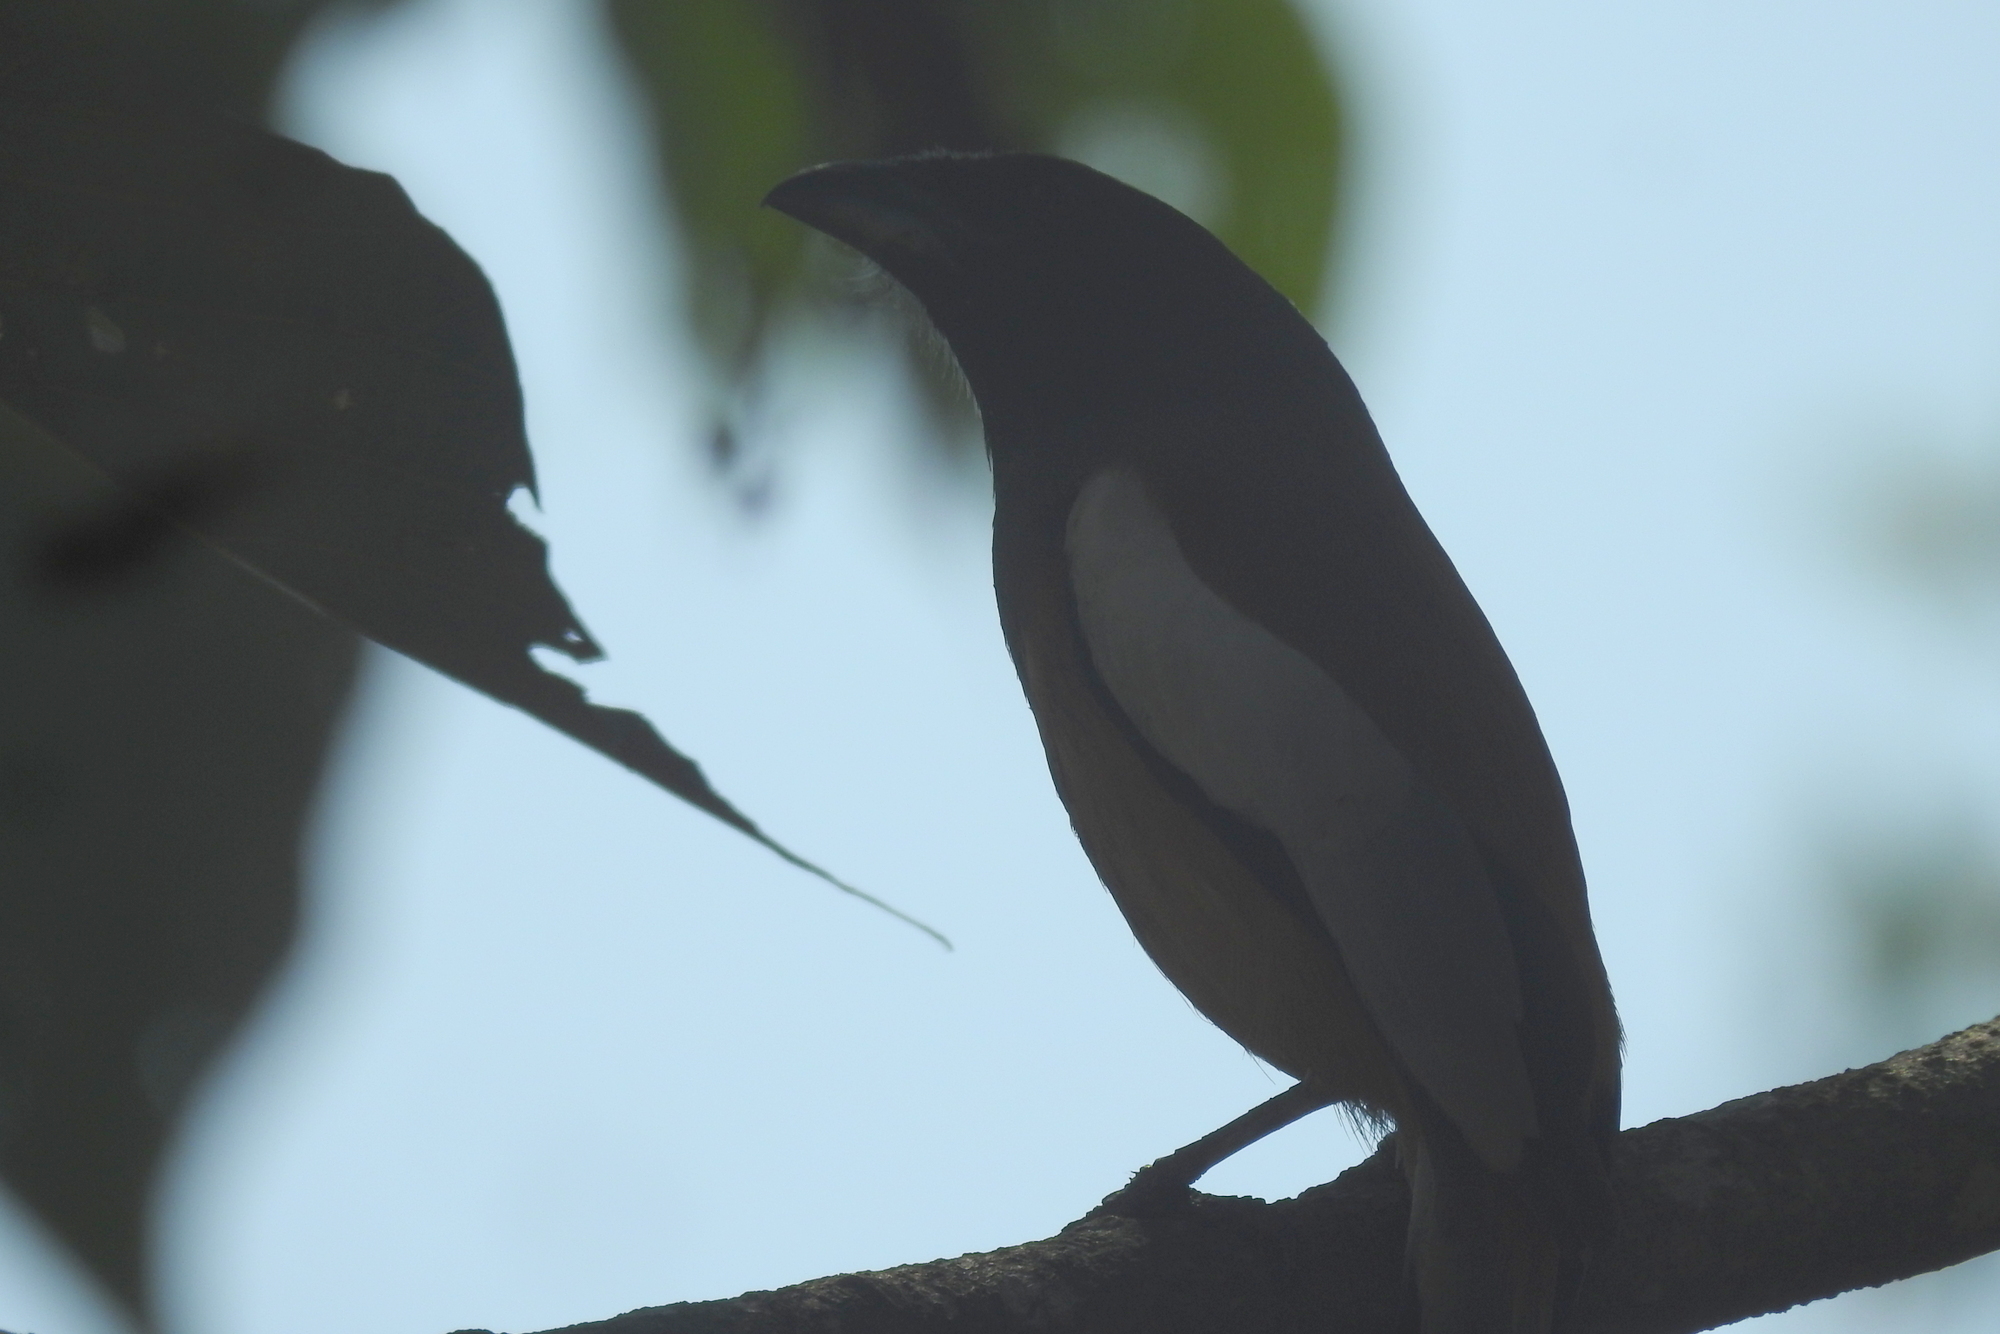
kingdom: Animalia
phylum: Chordata
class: Aves
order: Passeriformes
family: Corvidae
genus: Dendrocitta
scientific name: Dendrocitta vagabunda
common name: Rufous treepie
